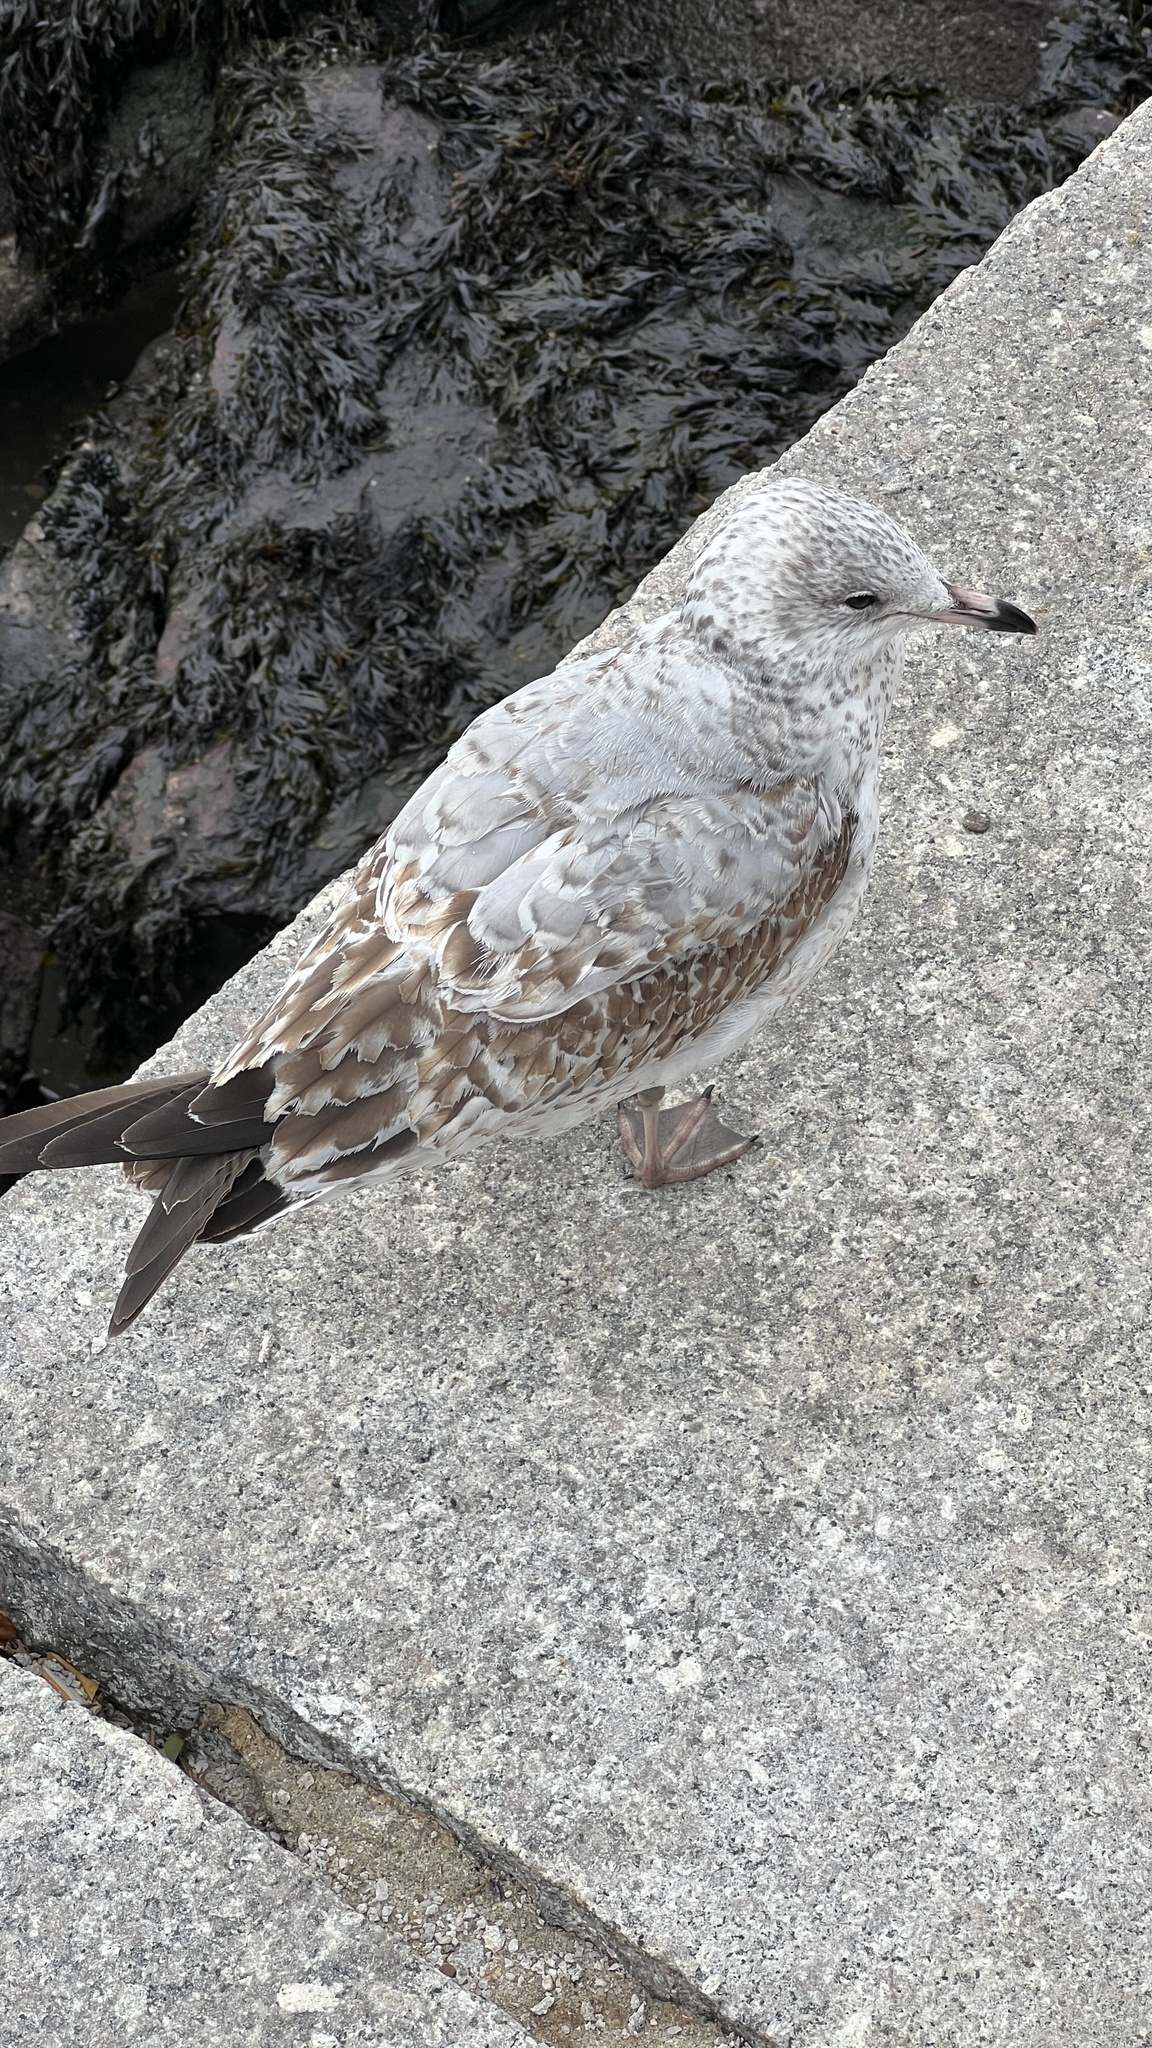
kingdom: Animalia
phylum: Chordata
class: Aves
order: Charadriiformes
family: Laridae
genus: Larus
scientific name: Larus delawarensis
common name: Ring-billed gull
